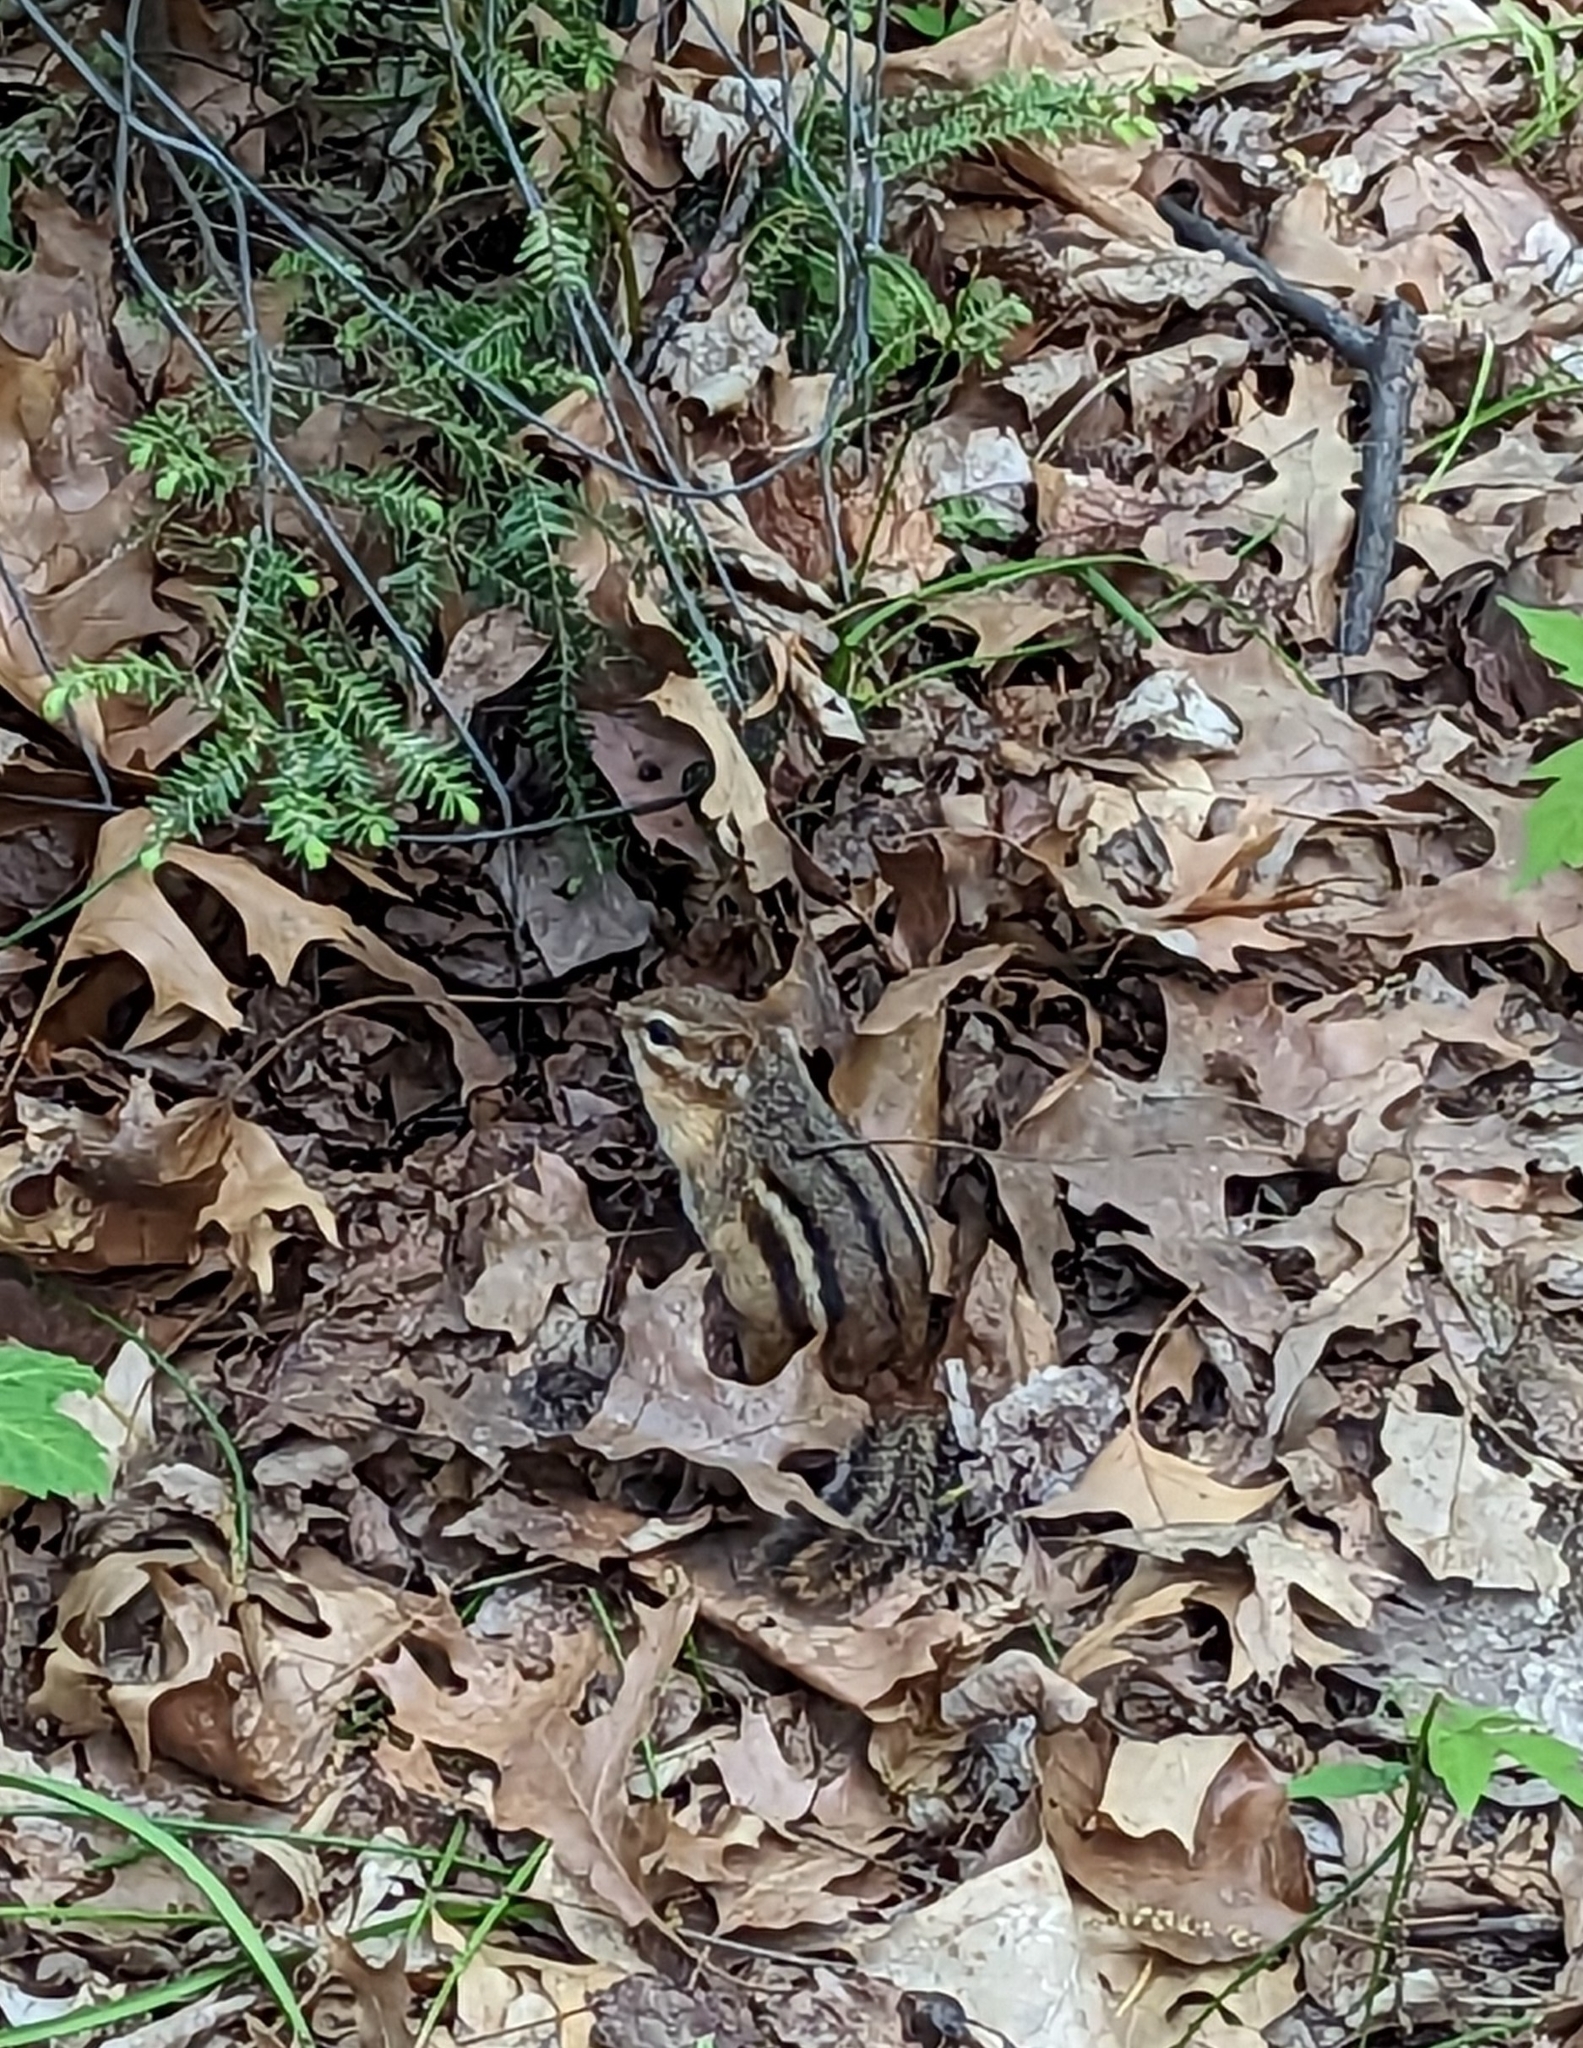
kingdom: Animalia
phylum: Chordata
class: Mammalia
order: Rodentia
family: Sciuridae
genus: Tamias
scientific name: Tamias striatus
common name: Eastern chipmunk
